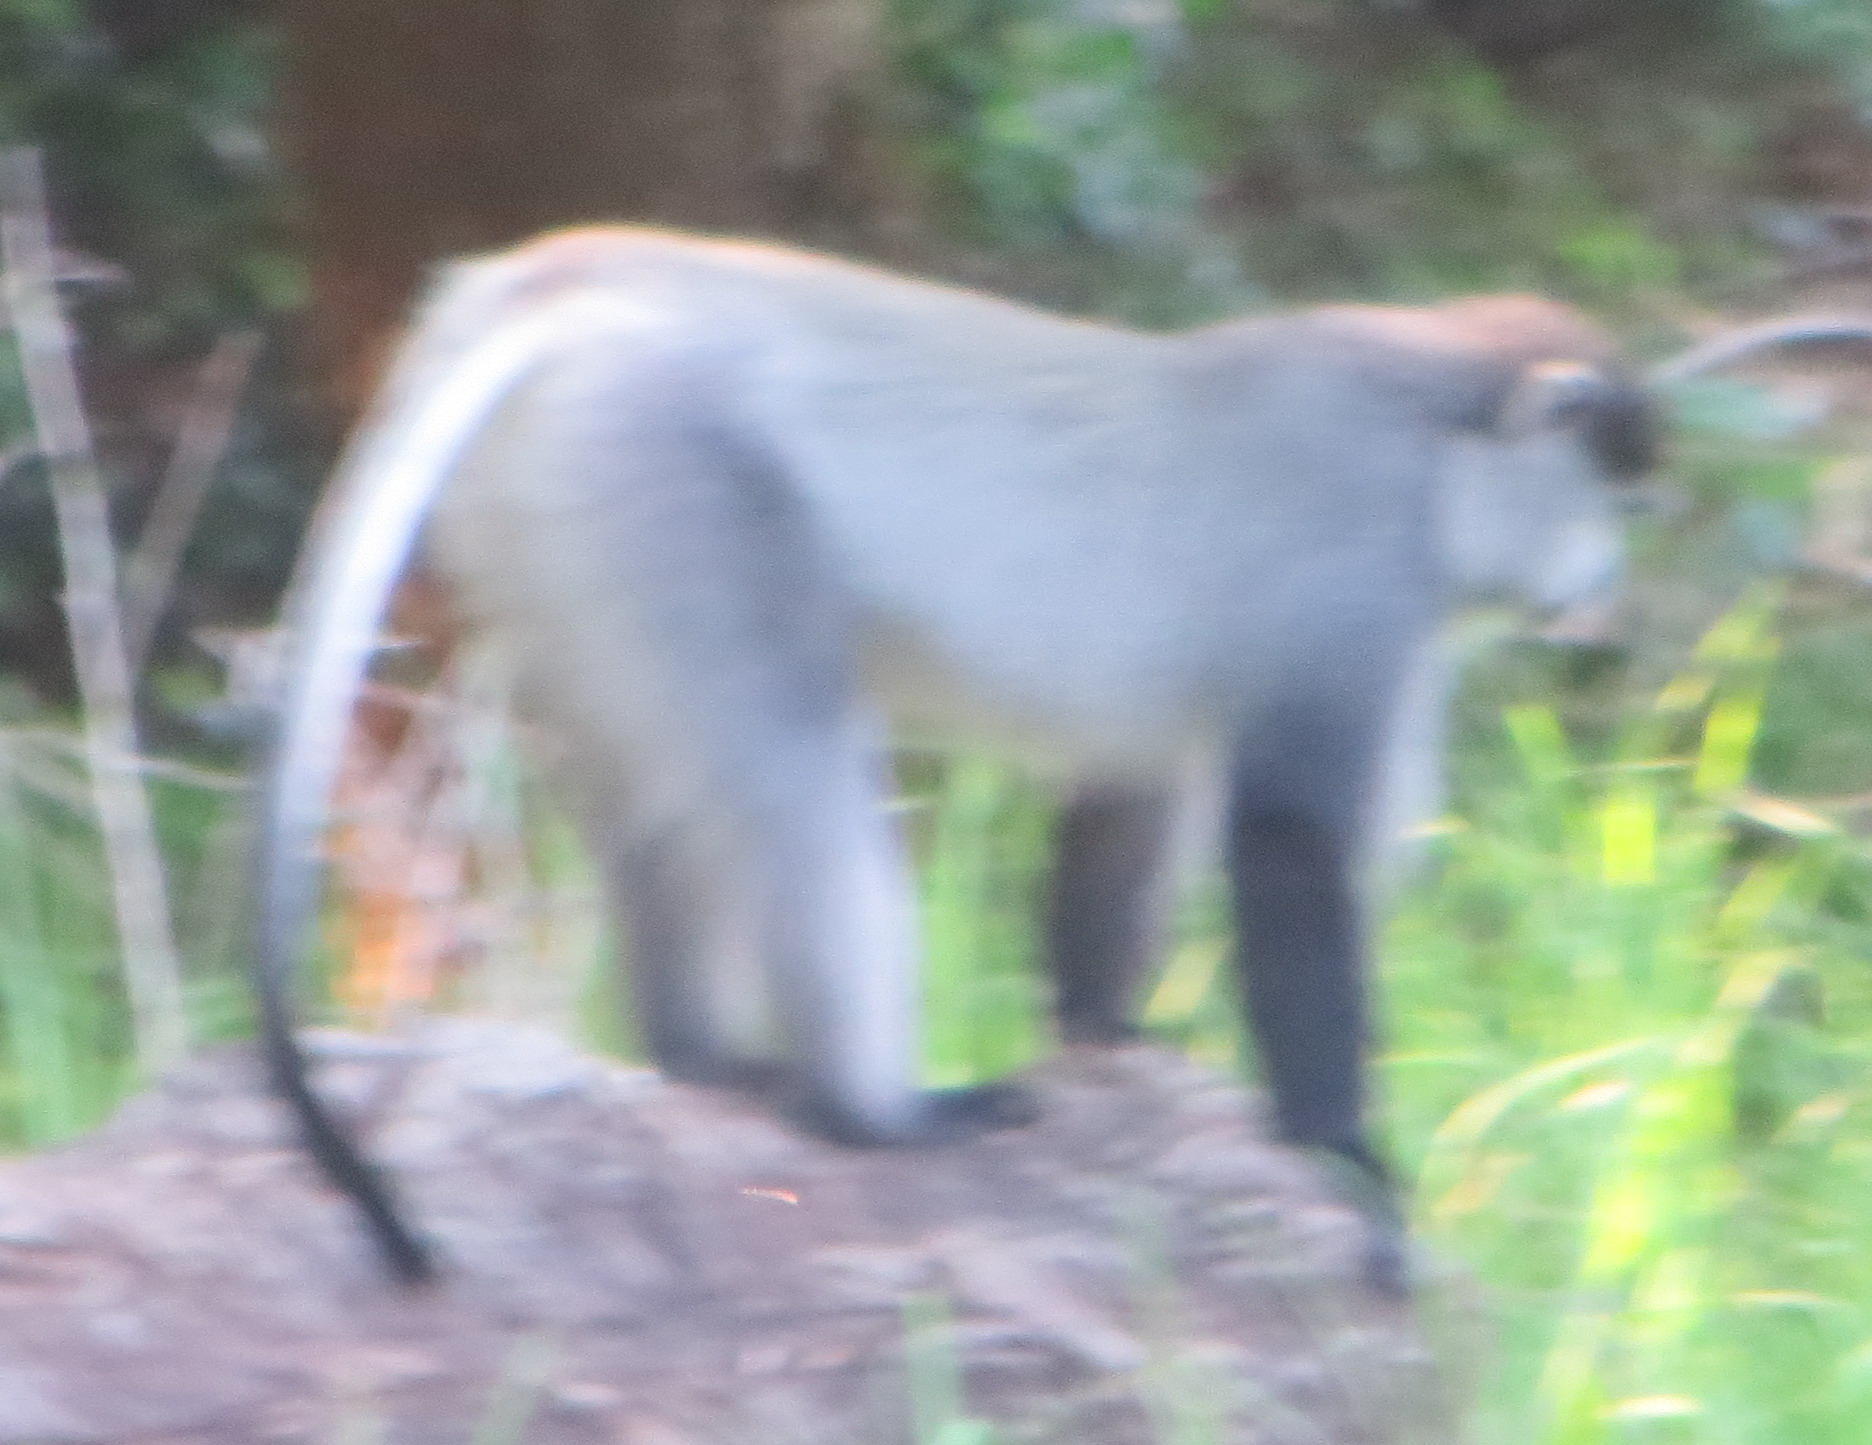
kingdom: Animalia
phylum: Chordata
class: Mammalia
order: Primates
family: Cercopithecidae
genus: Cercopithecus
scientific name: Cercopithecus mitis
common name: Blue monkey
